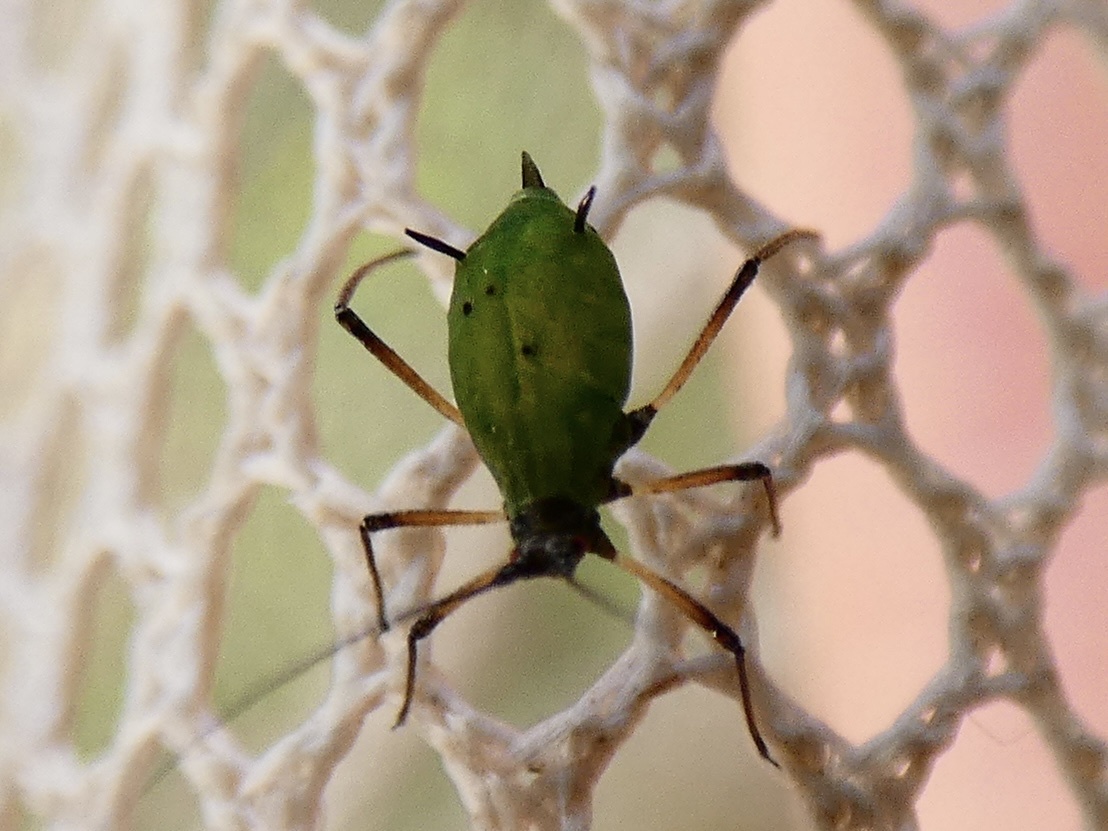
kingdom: Animalia
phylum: Arthropoda
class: Insecta
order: Hemiptera
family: Aphididae
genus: Megoura
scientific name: Megoura viciae
